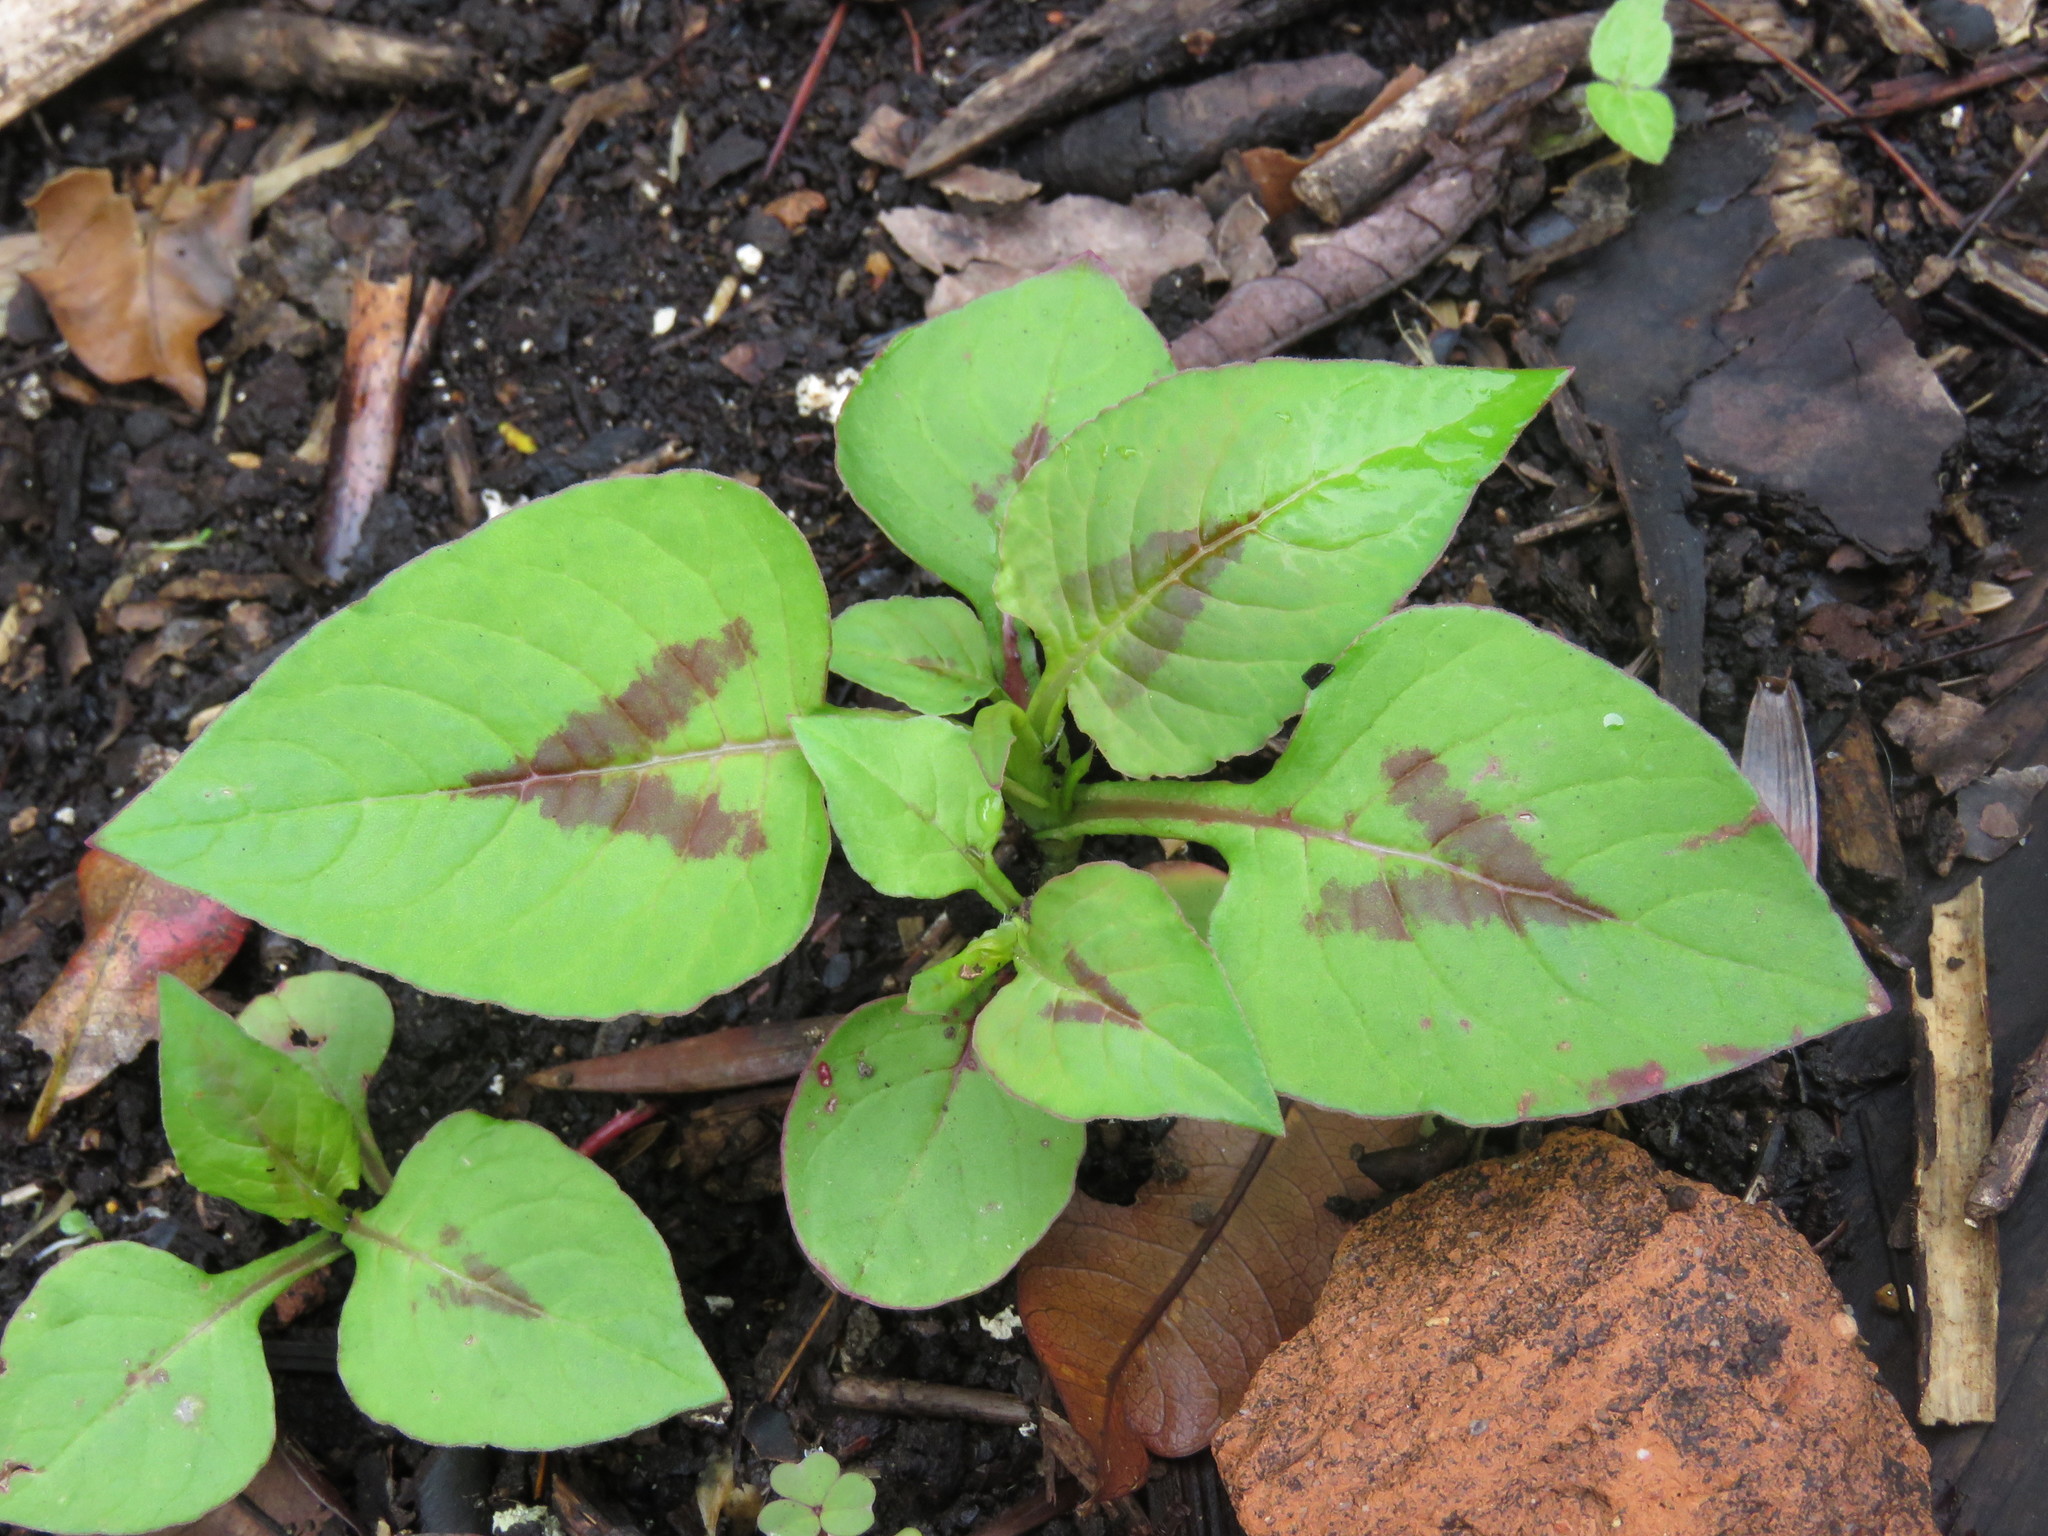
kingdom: Plantae
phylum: Tracheophyta
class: Magnoliopsida
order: Caryophyllales
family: Polygonaceae
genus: Persicaria
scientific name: Persicaria nepalensis
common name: Nepal persicaria
